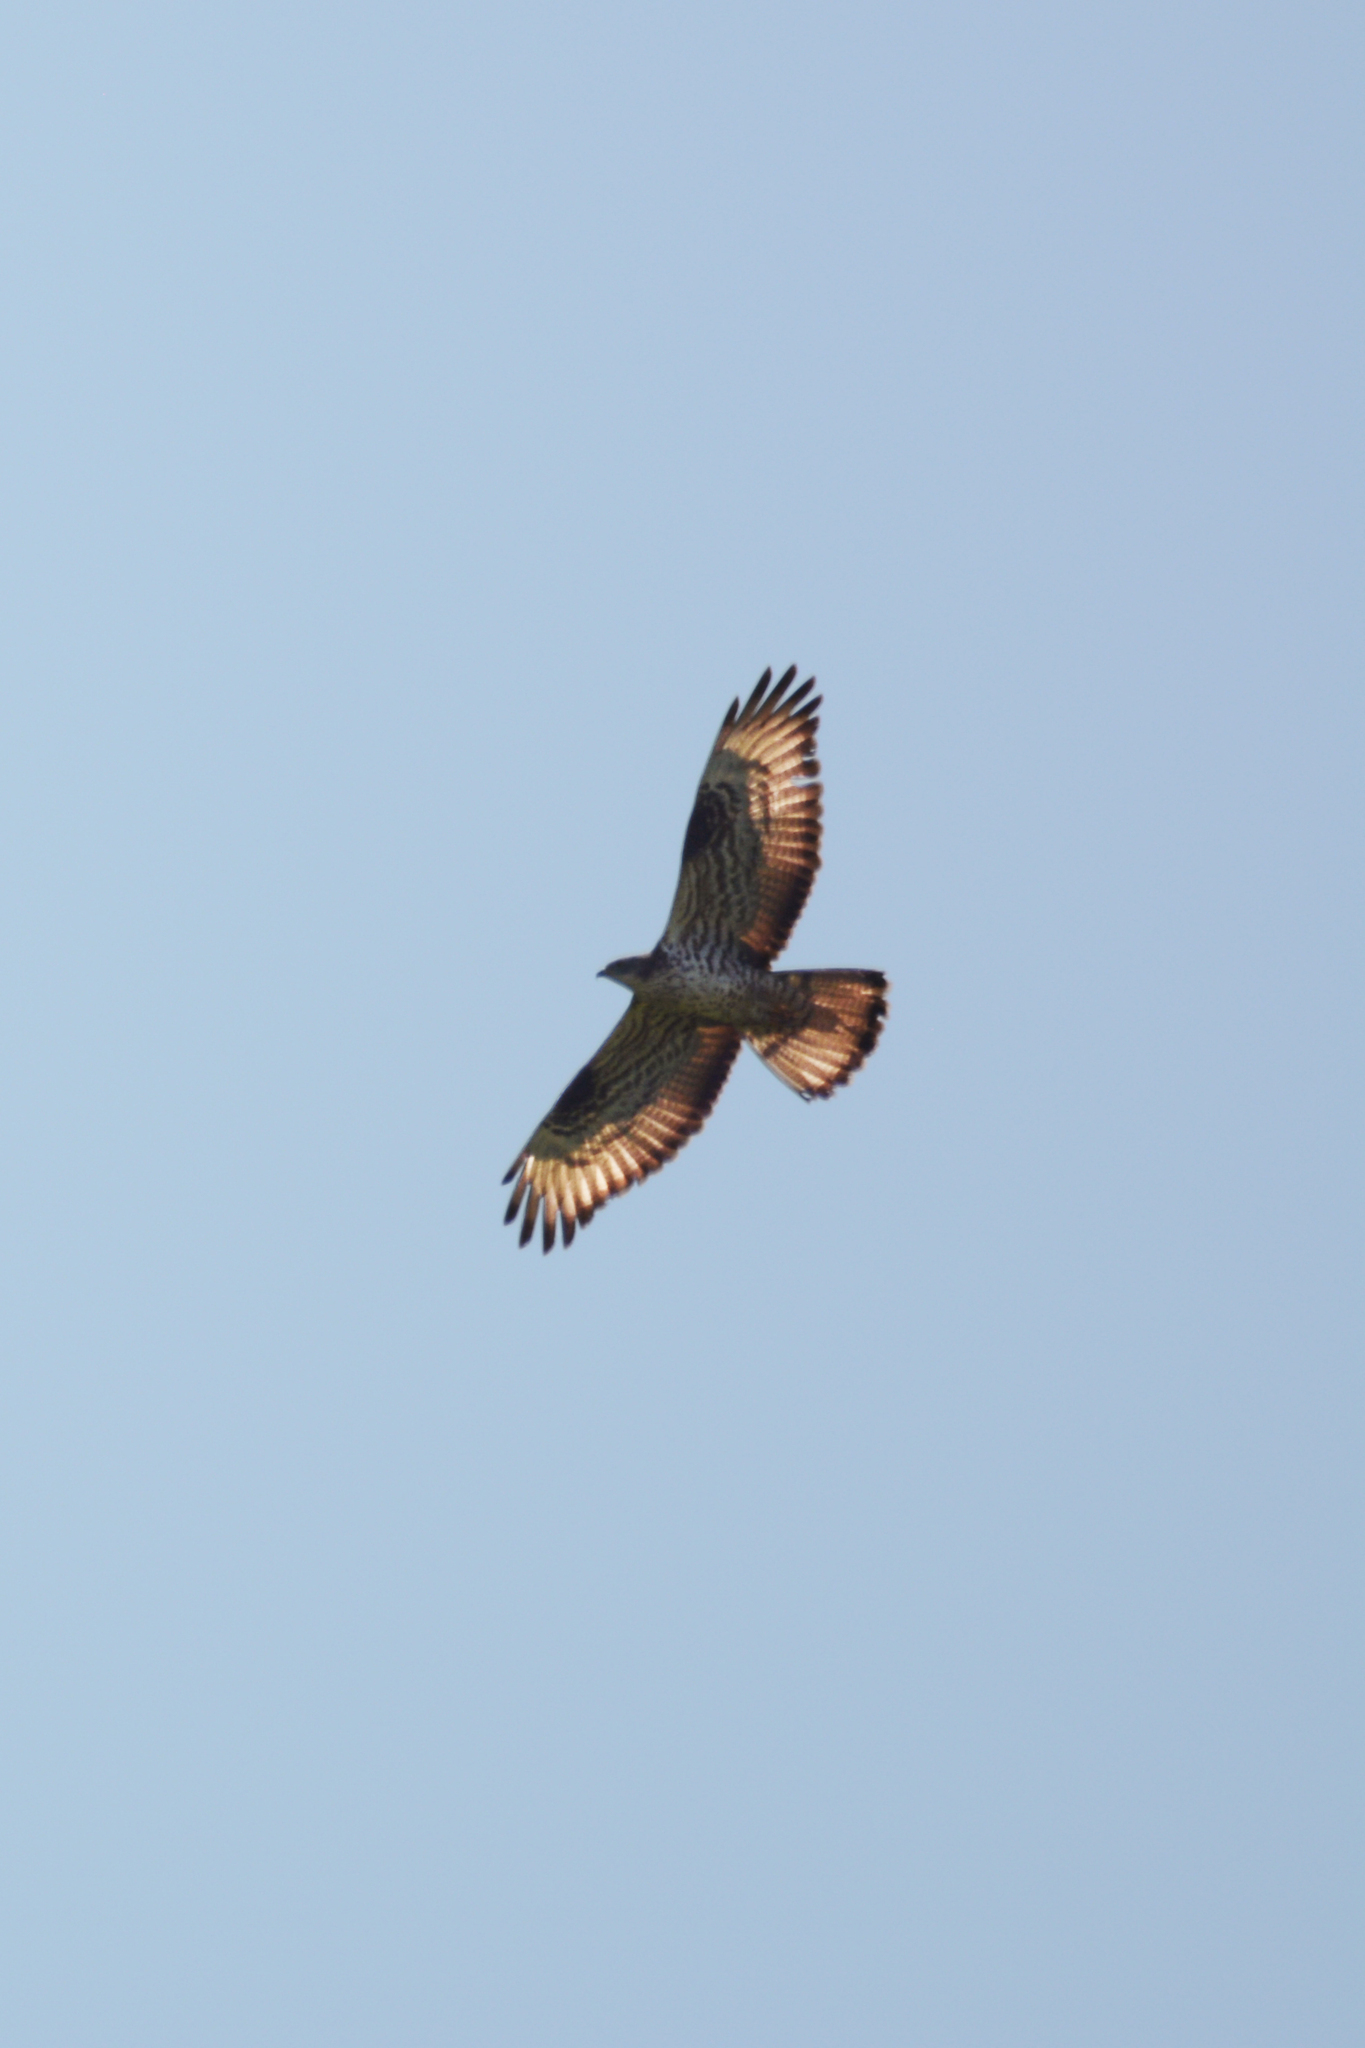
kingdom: Animalia
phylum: Chordata
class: Aves
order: Accipitriformes
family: Accipitridae
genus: Pernis
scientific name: Pernis apivorus
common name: European honey buzzard
